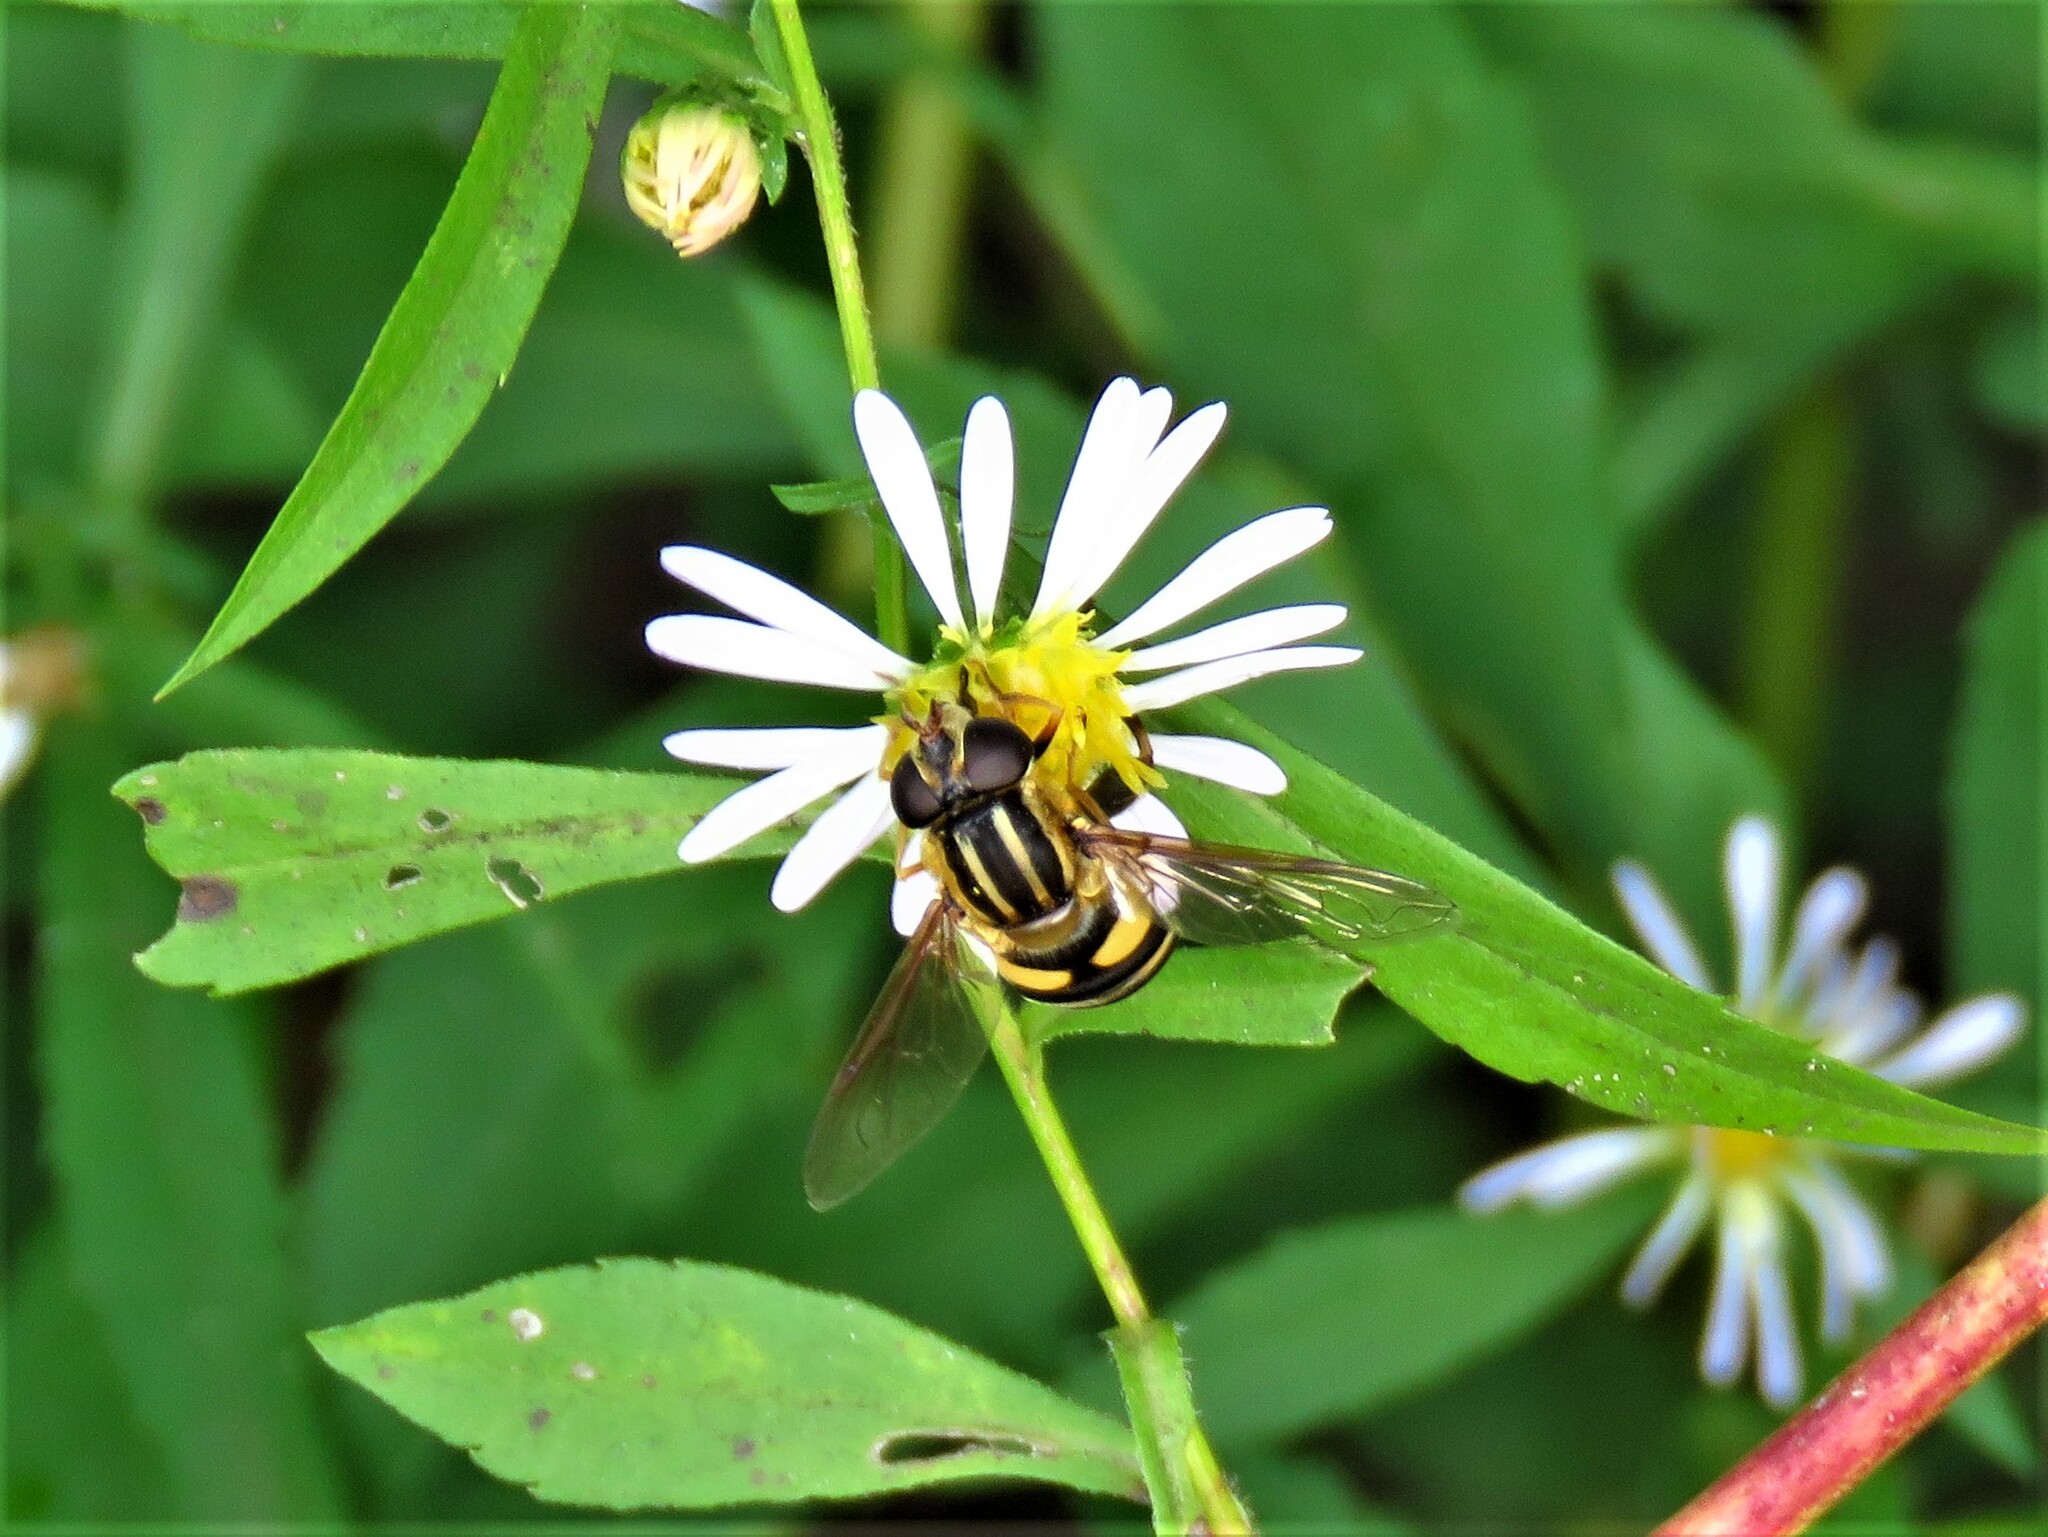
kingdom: Animalia
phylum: Arthropoda
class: Insecta
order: Diptera
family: Syrphidae
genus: Helophilus
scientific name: Helophilus fasciatus
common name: Narrow-headed marsh fly
